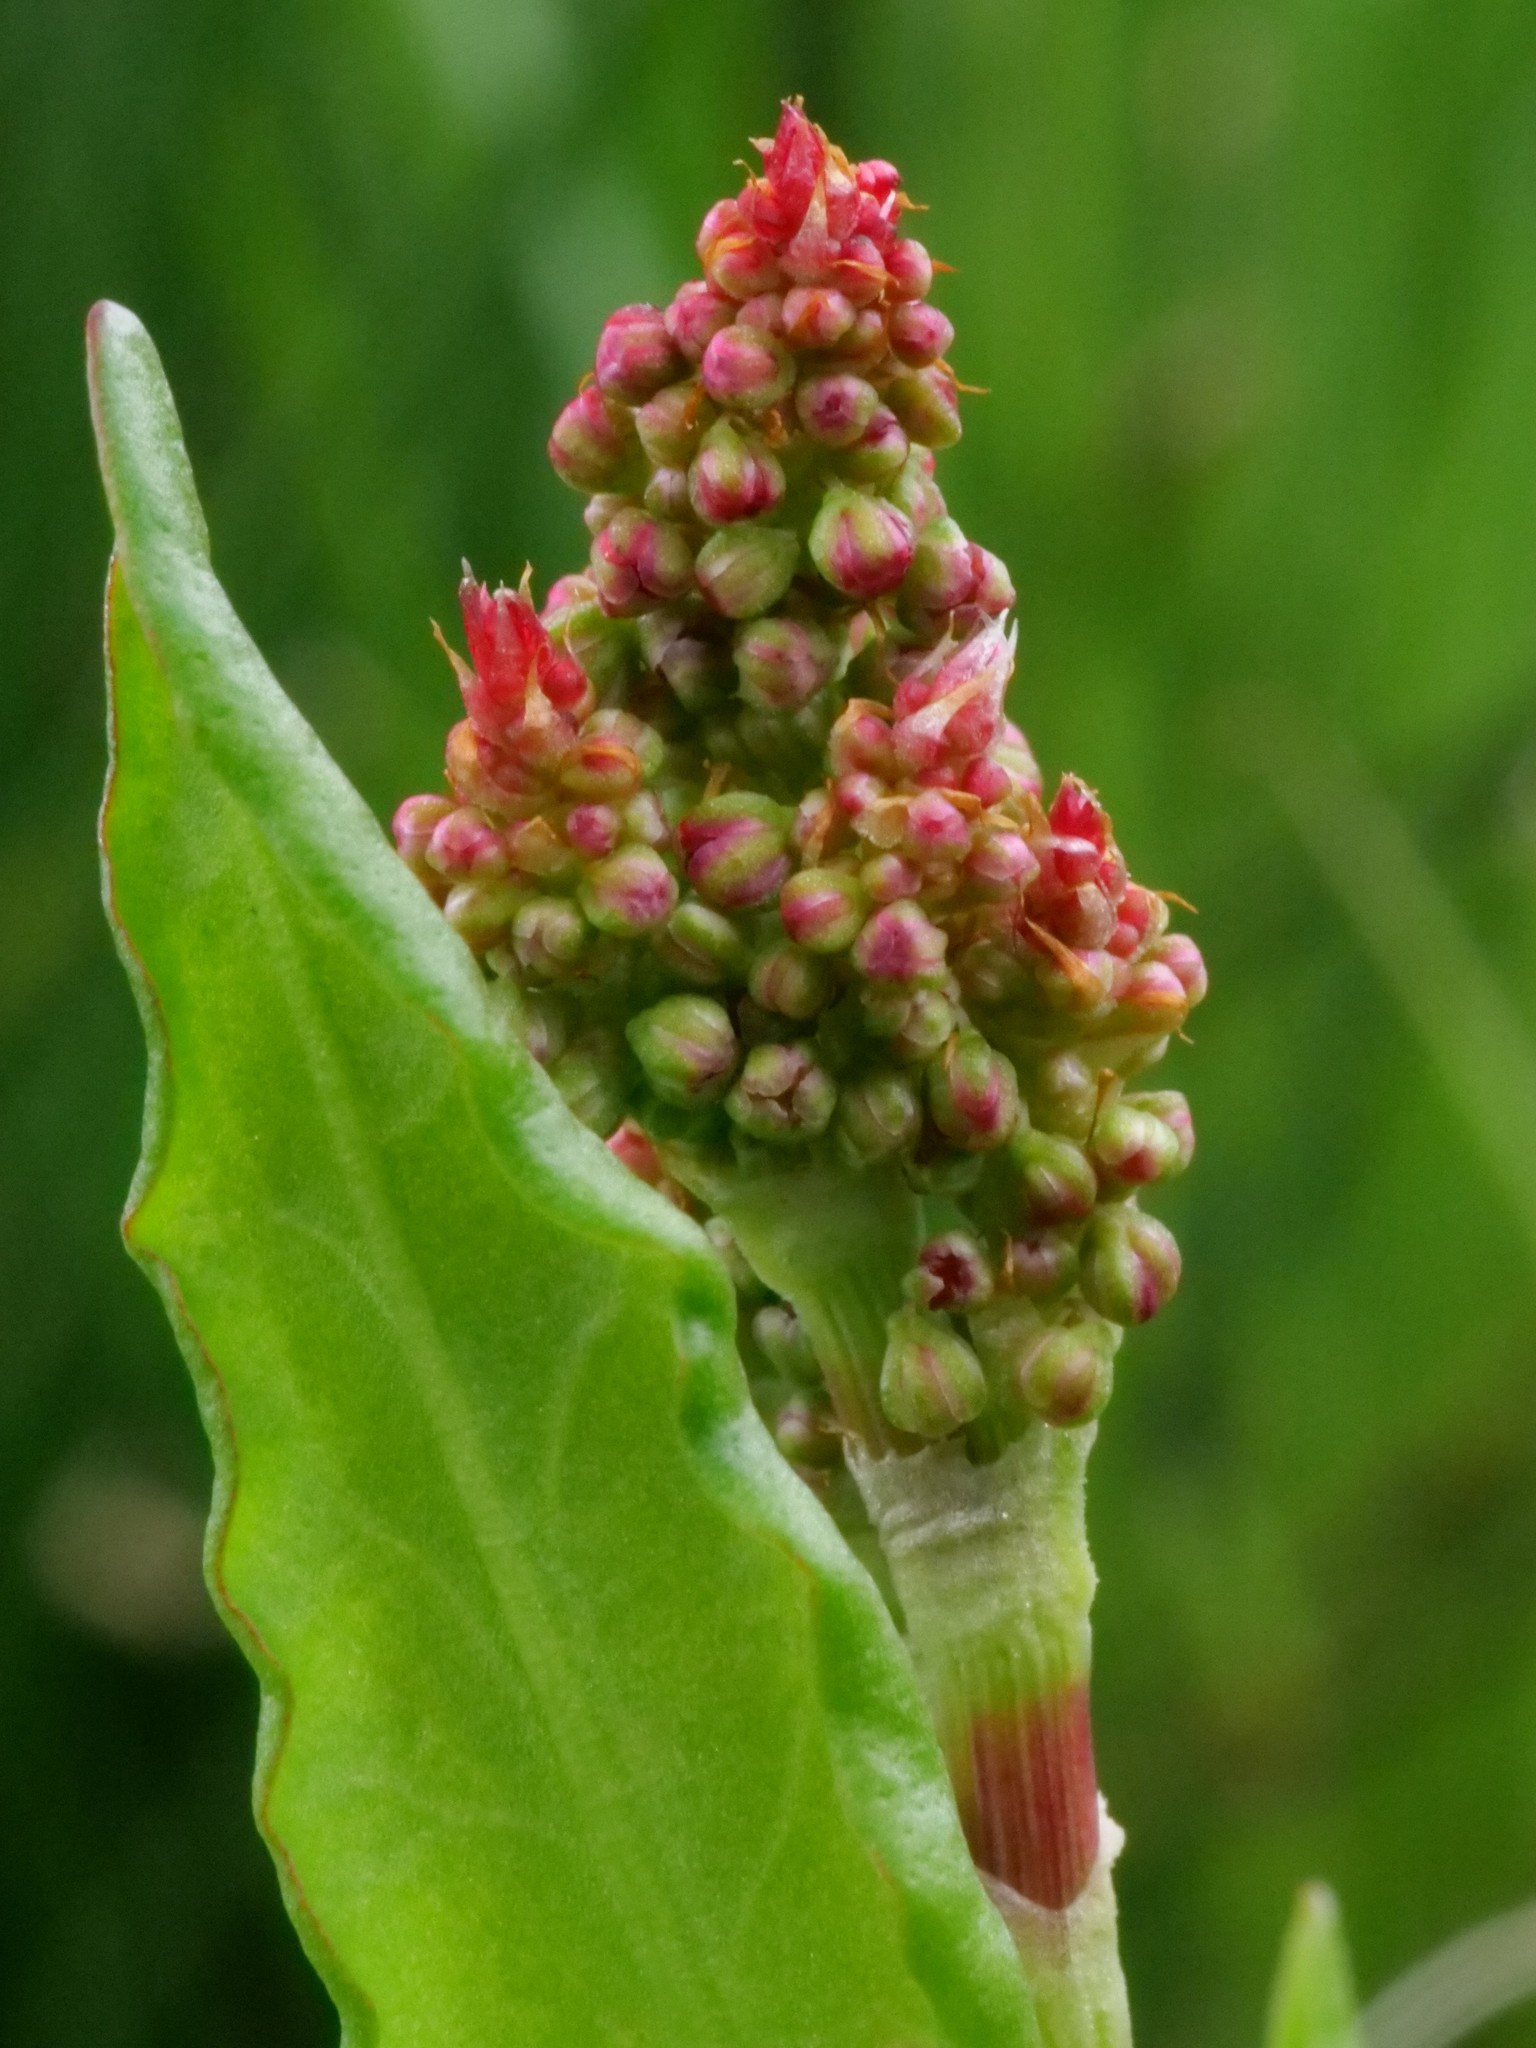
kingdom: Plantae
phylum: Tracheophyta
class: Magnoliopsida
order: Caryophyllales
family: Polygonaceae
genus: Rumex
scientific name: Rumex acetosa
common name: Garden sorrel
